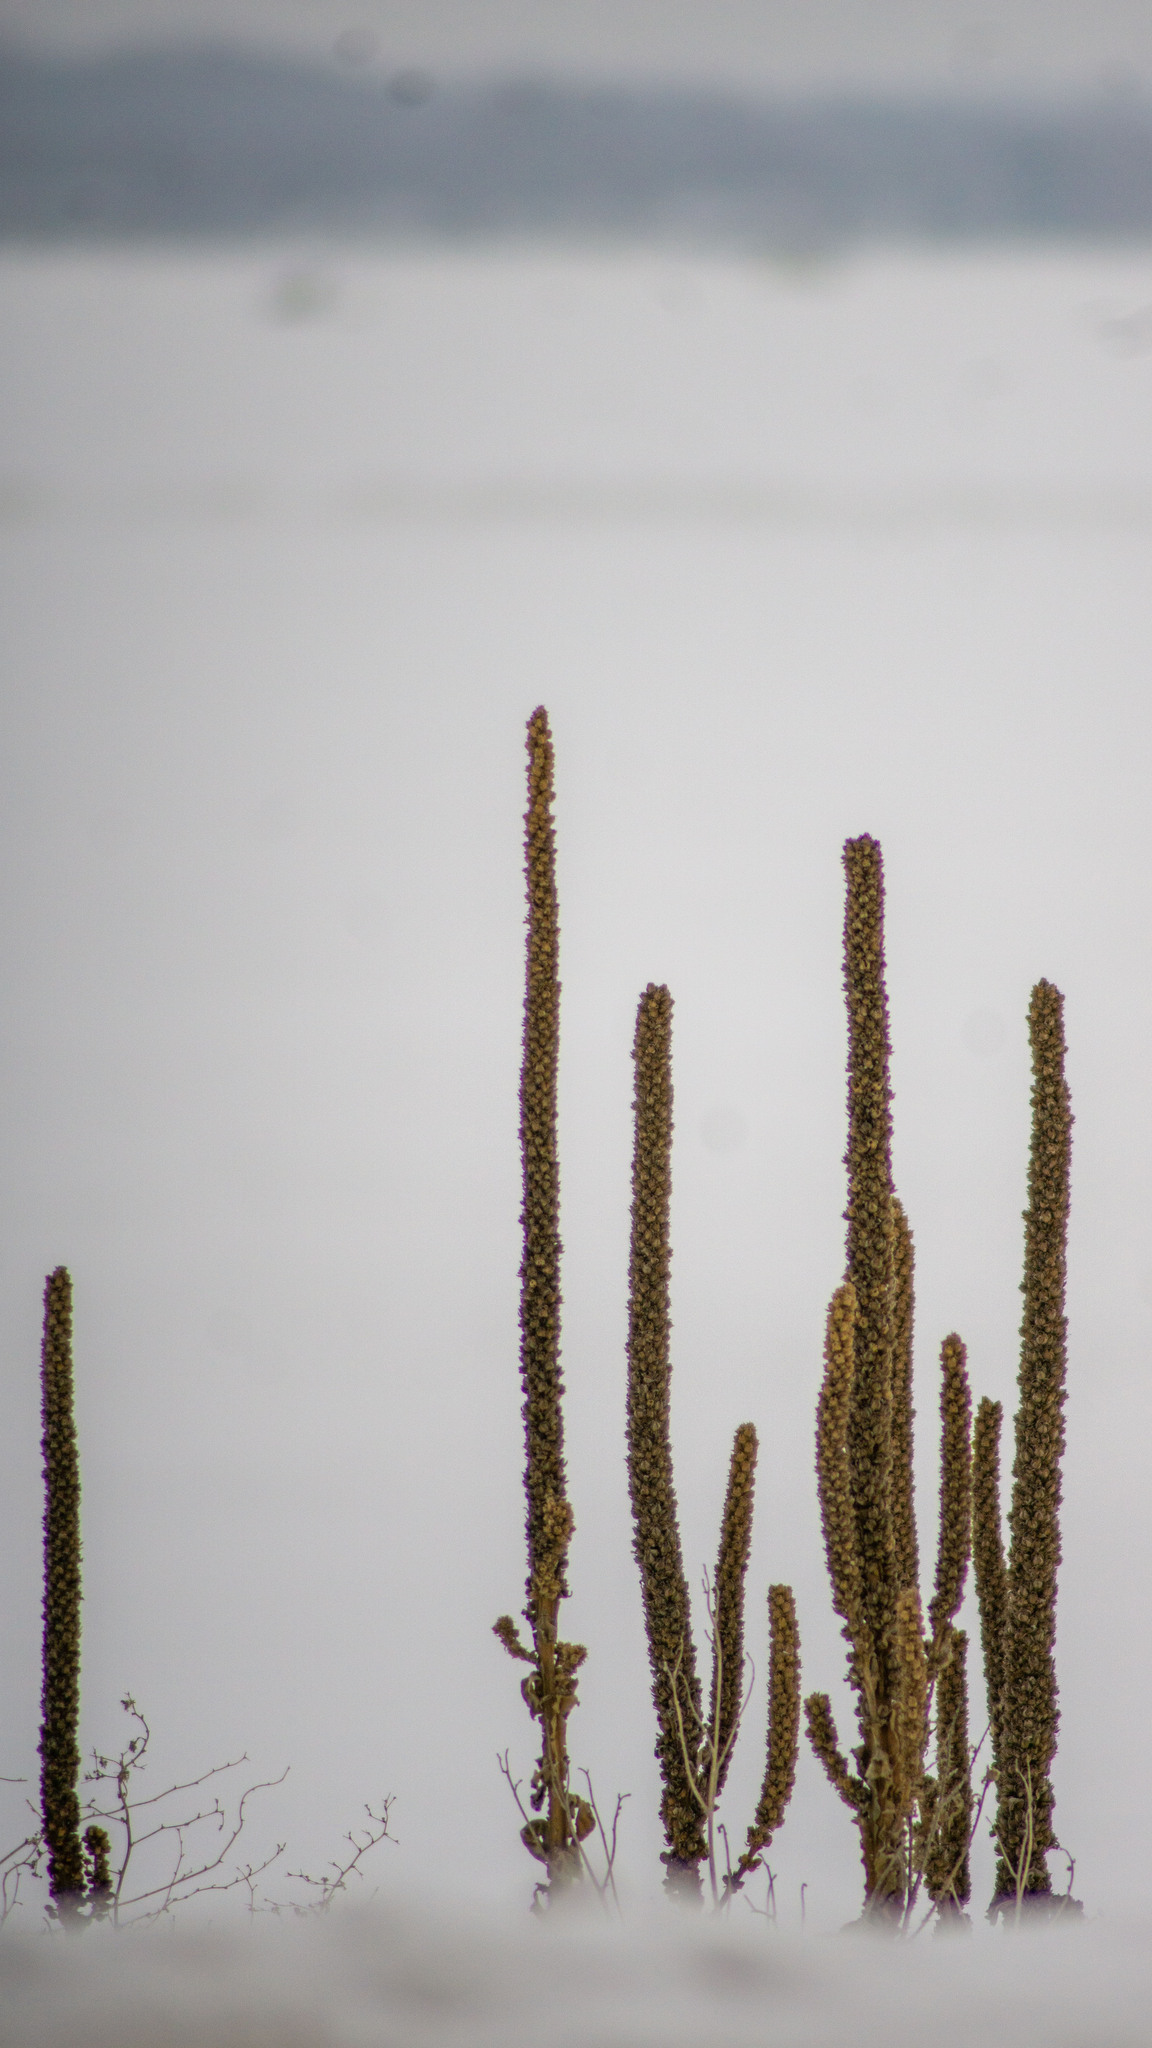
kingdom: Plantae
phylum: Tracheophyta
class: Magnoliopsida
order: Lamiales
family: Scrophulariaceae
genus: Verbascum
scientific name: Verbascum thapsus
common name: Common mullein
